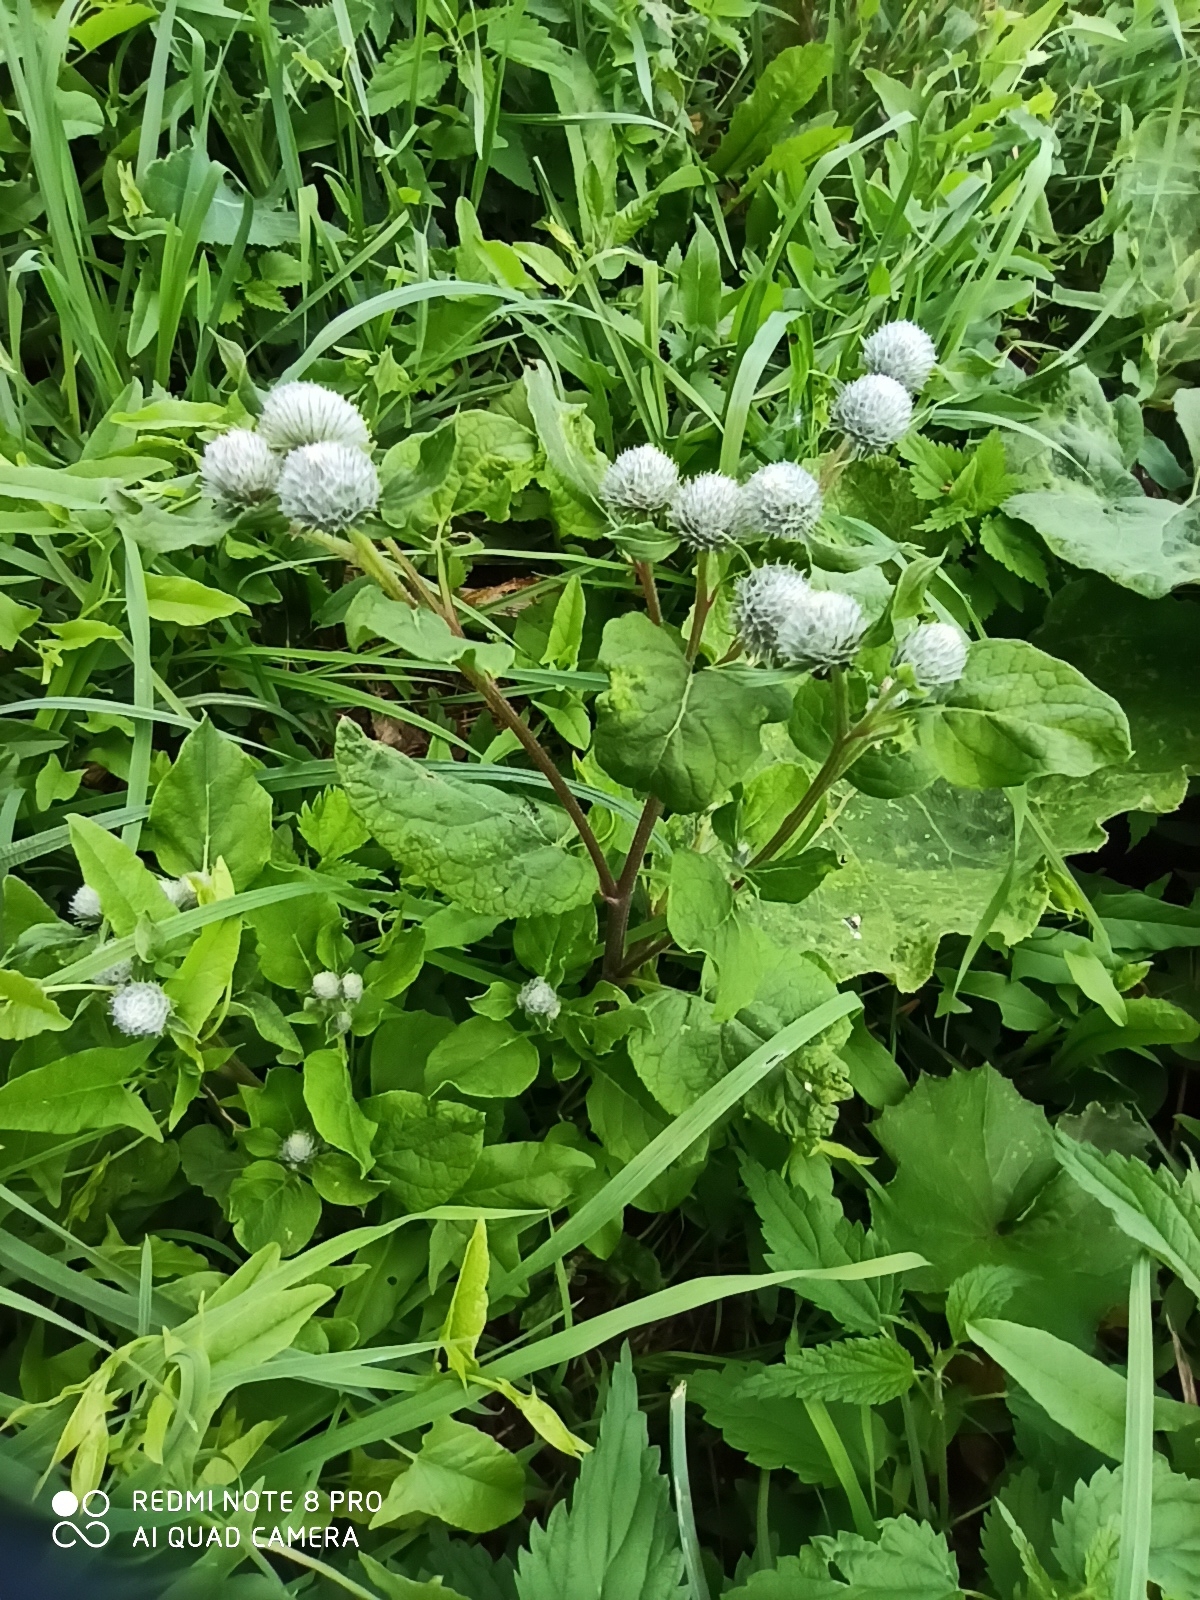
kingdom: Plantae
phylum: Tracheophyta
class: Magnoliopsida
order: Asterales
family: Asteraceae
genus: Arctium
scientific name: Arctium tomentosum
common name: Woolly burdock
